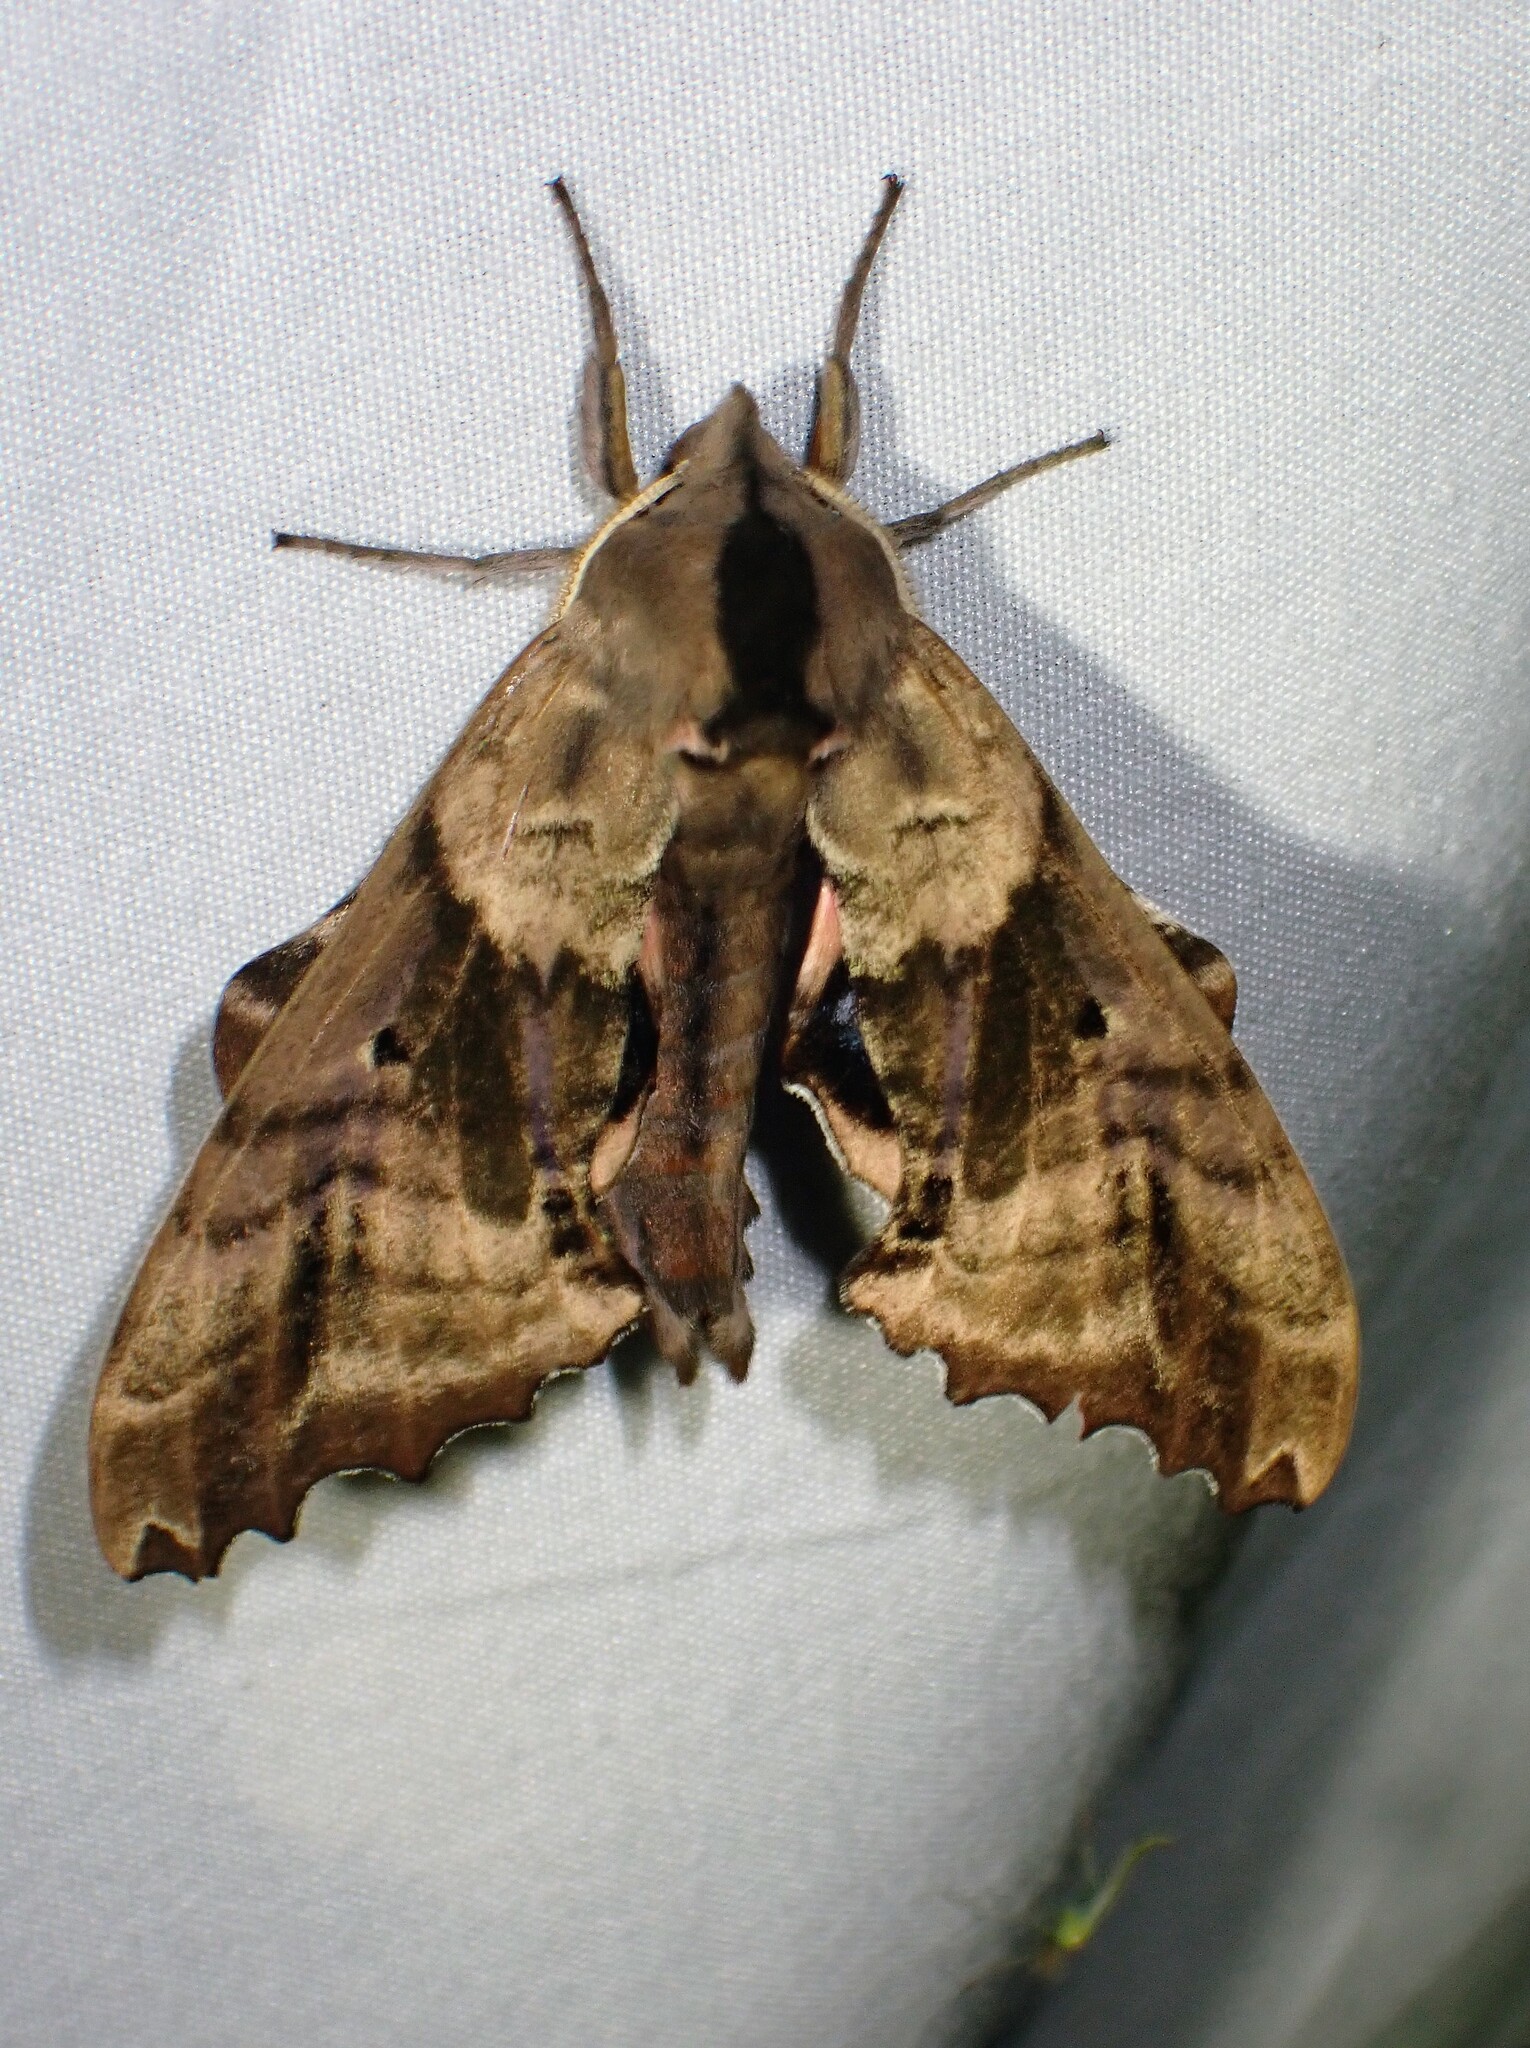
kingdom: Animalia
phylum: Arthropoda
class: Insecta
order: Lepidoptera
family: Sphingidae
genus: Paonias
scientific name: Paonias excaecata
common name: Blind-eyed sphinx
